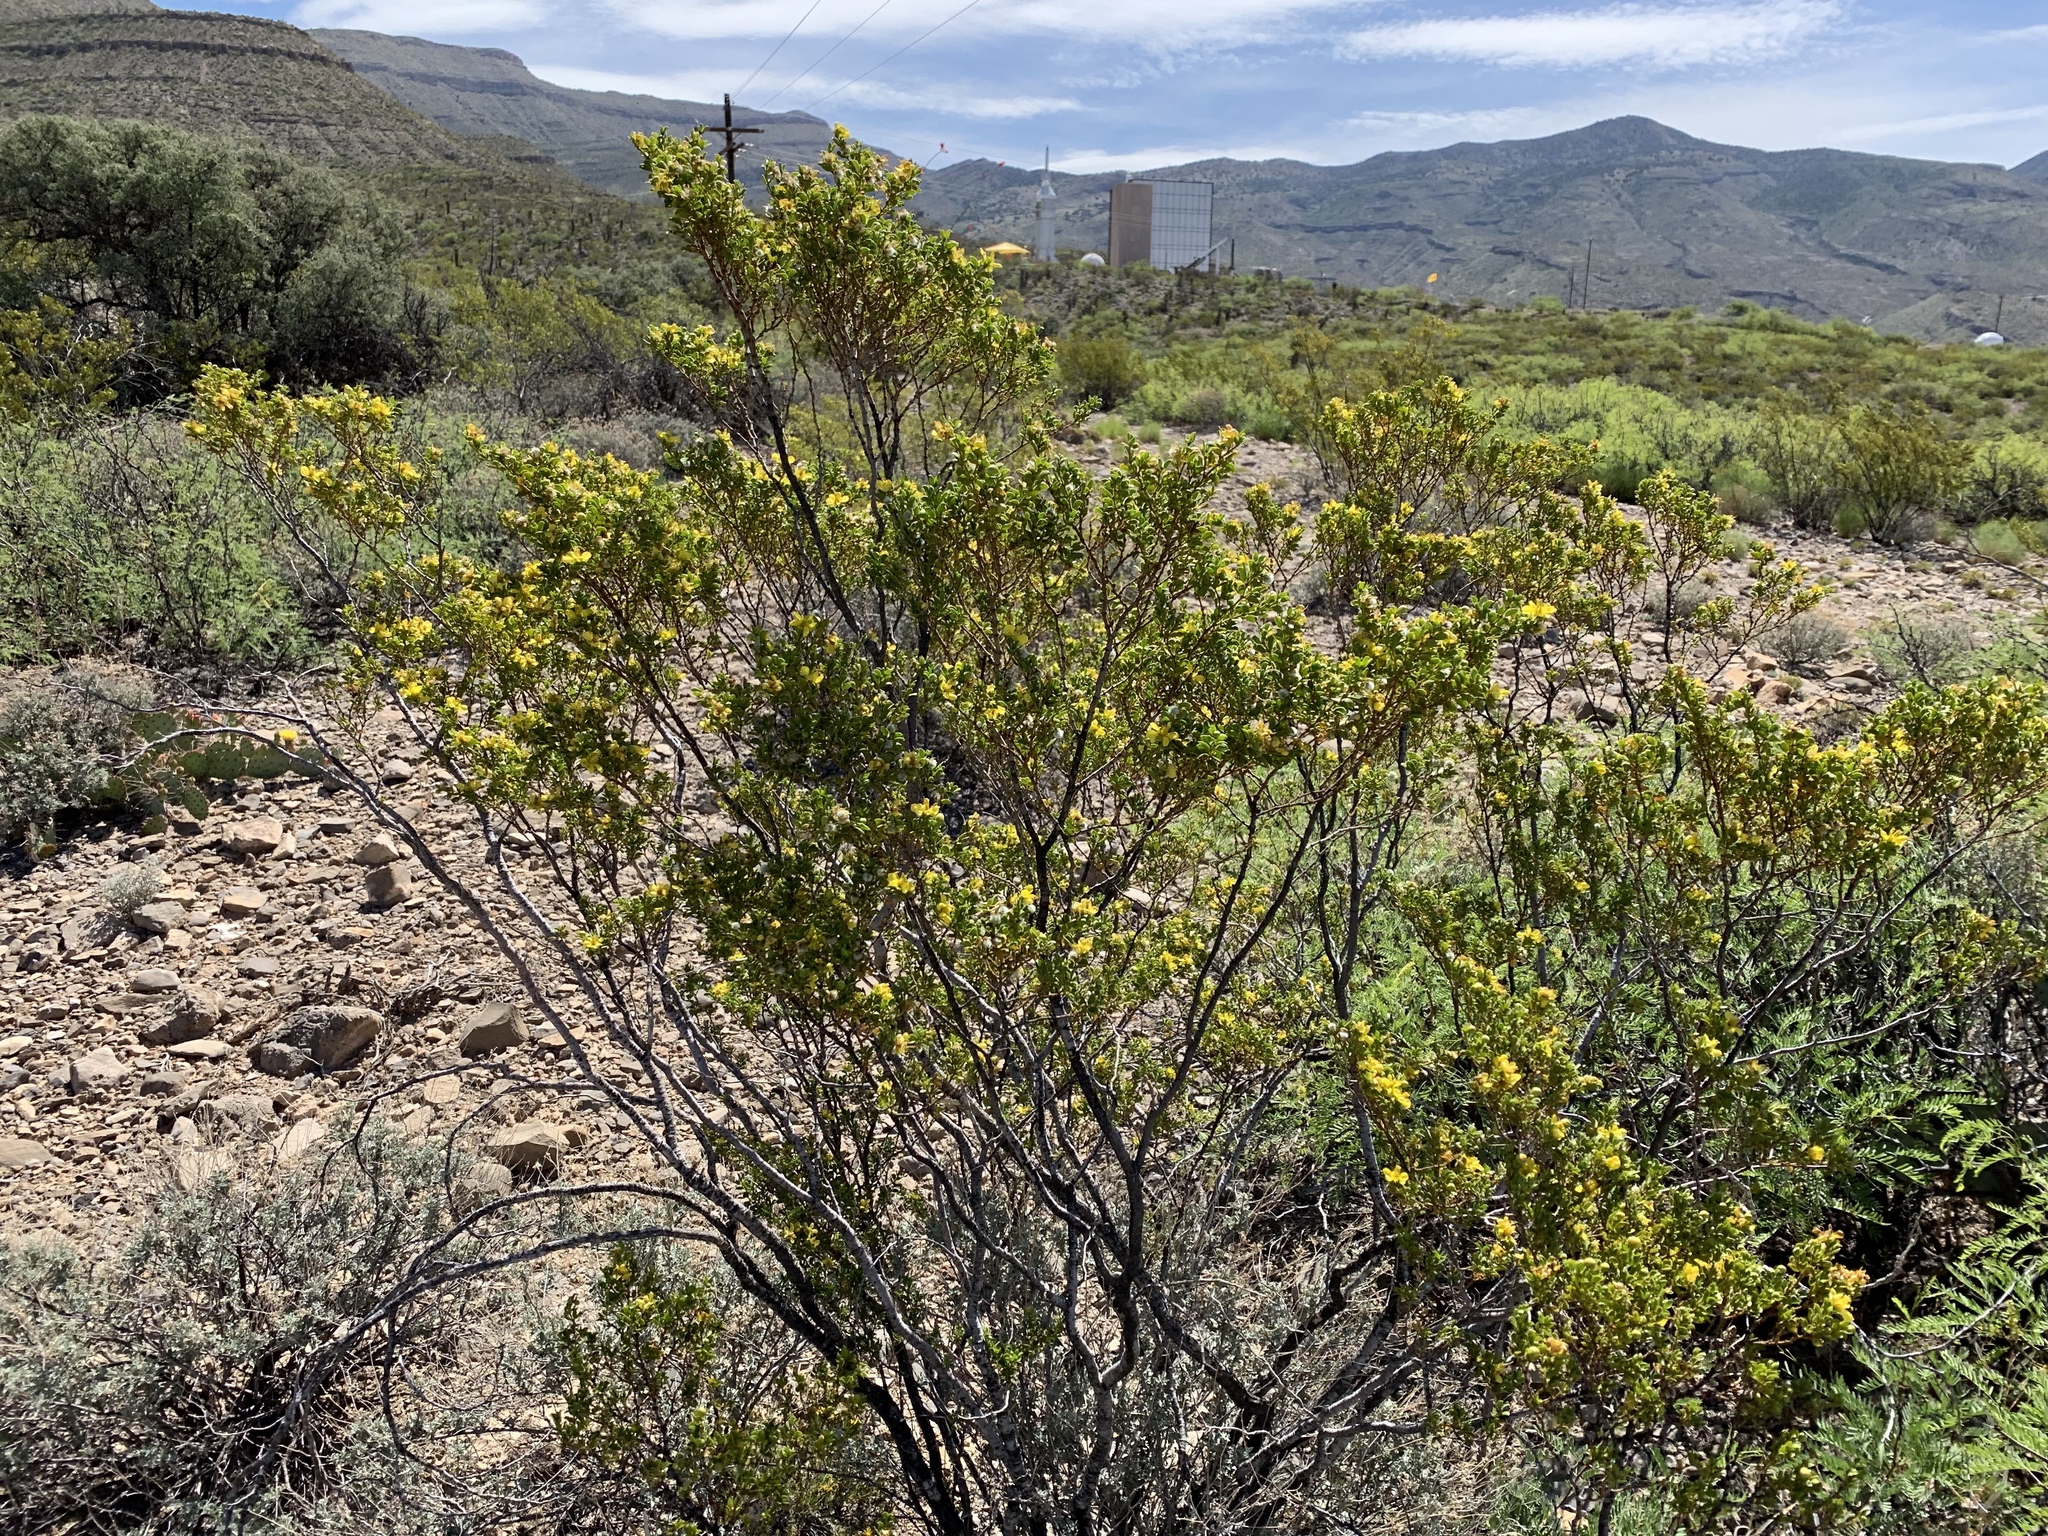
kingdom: Plantae
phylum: Tracheophyta
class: Magnoliopsida
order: Zygophyllales
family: Zygophyllaceae
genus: Larrea
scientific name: Larrea tridentata
